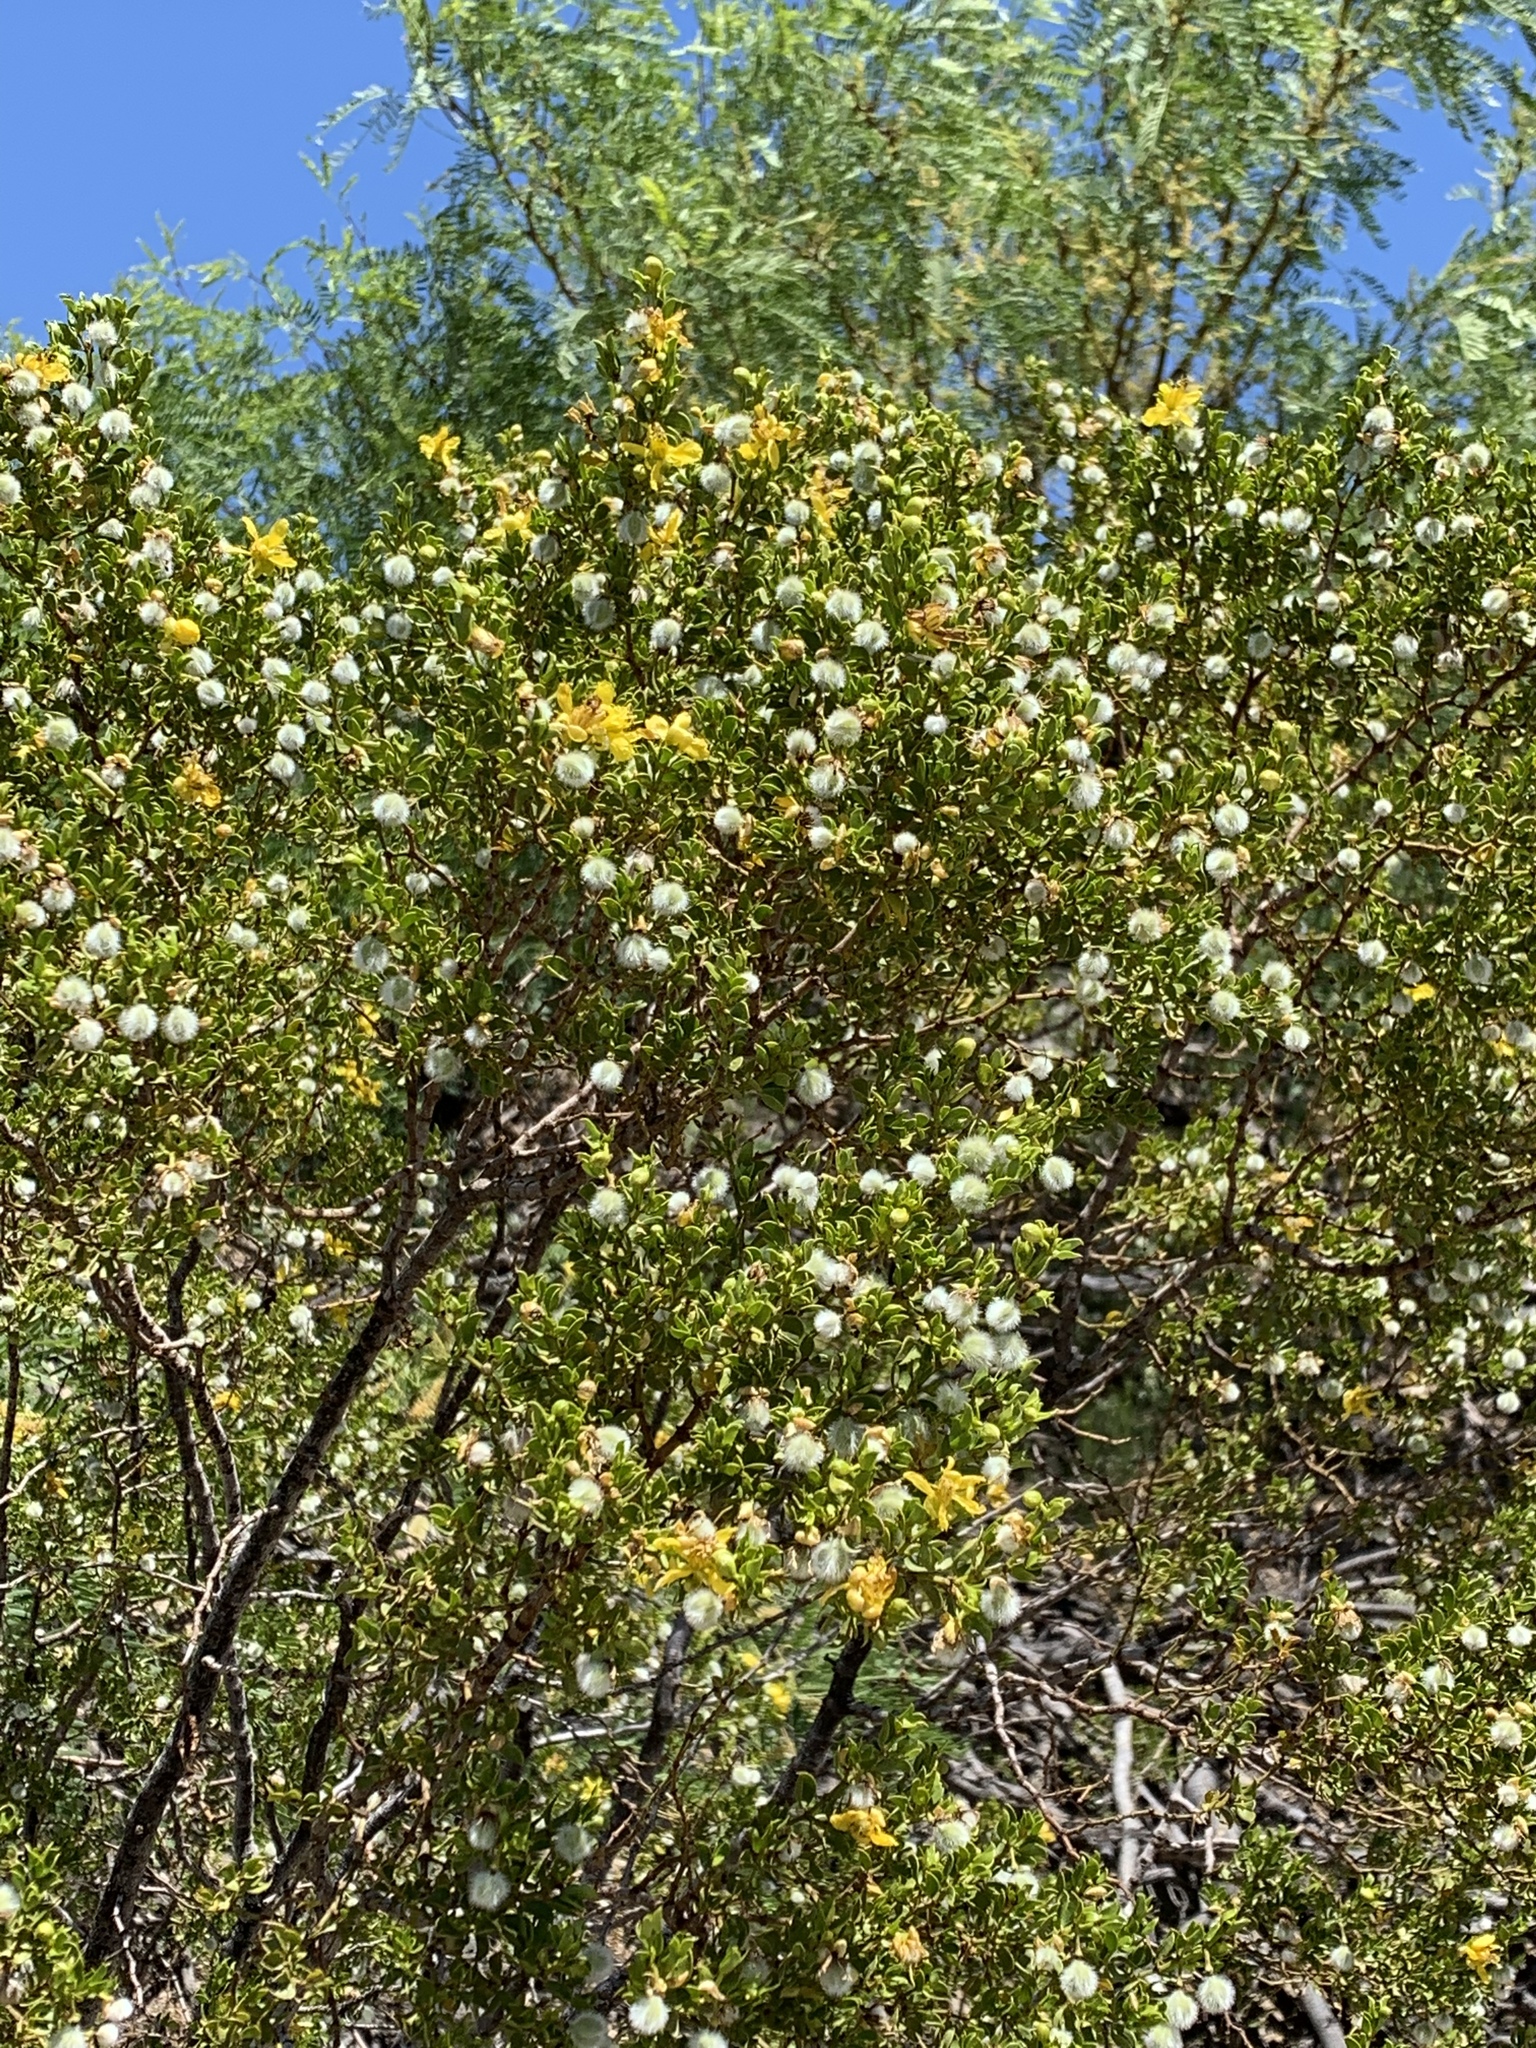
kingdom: Plantae
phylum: Tracheophyta
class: Magnoliopsida
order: Zygophyllales
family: Zygophyllaceae
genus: Larrea
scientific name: Larrea tridentata
